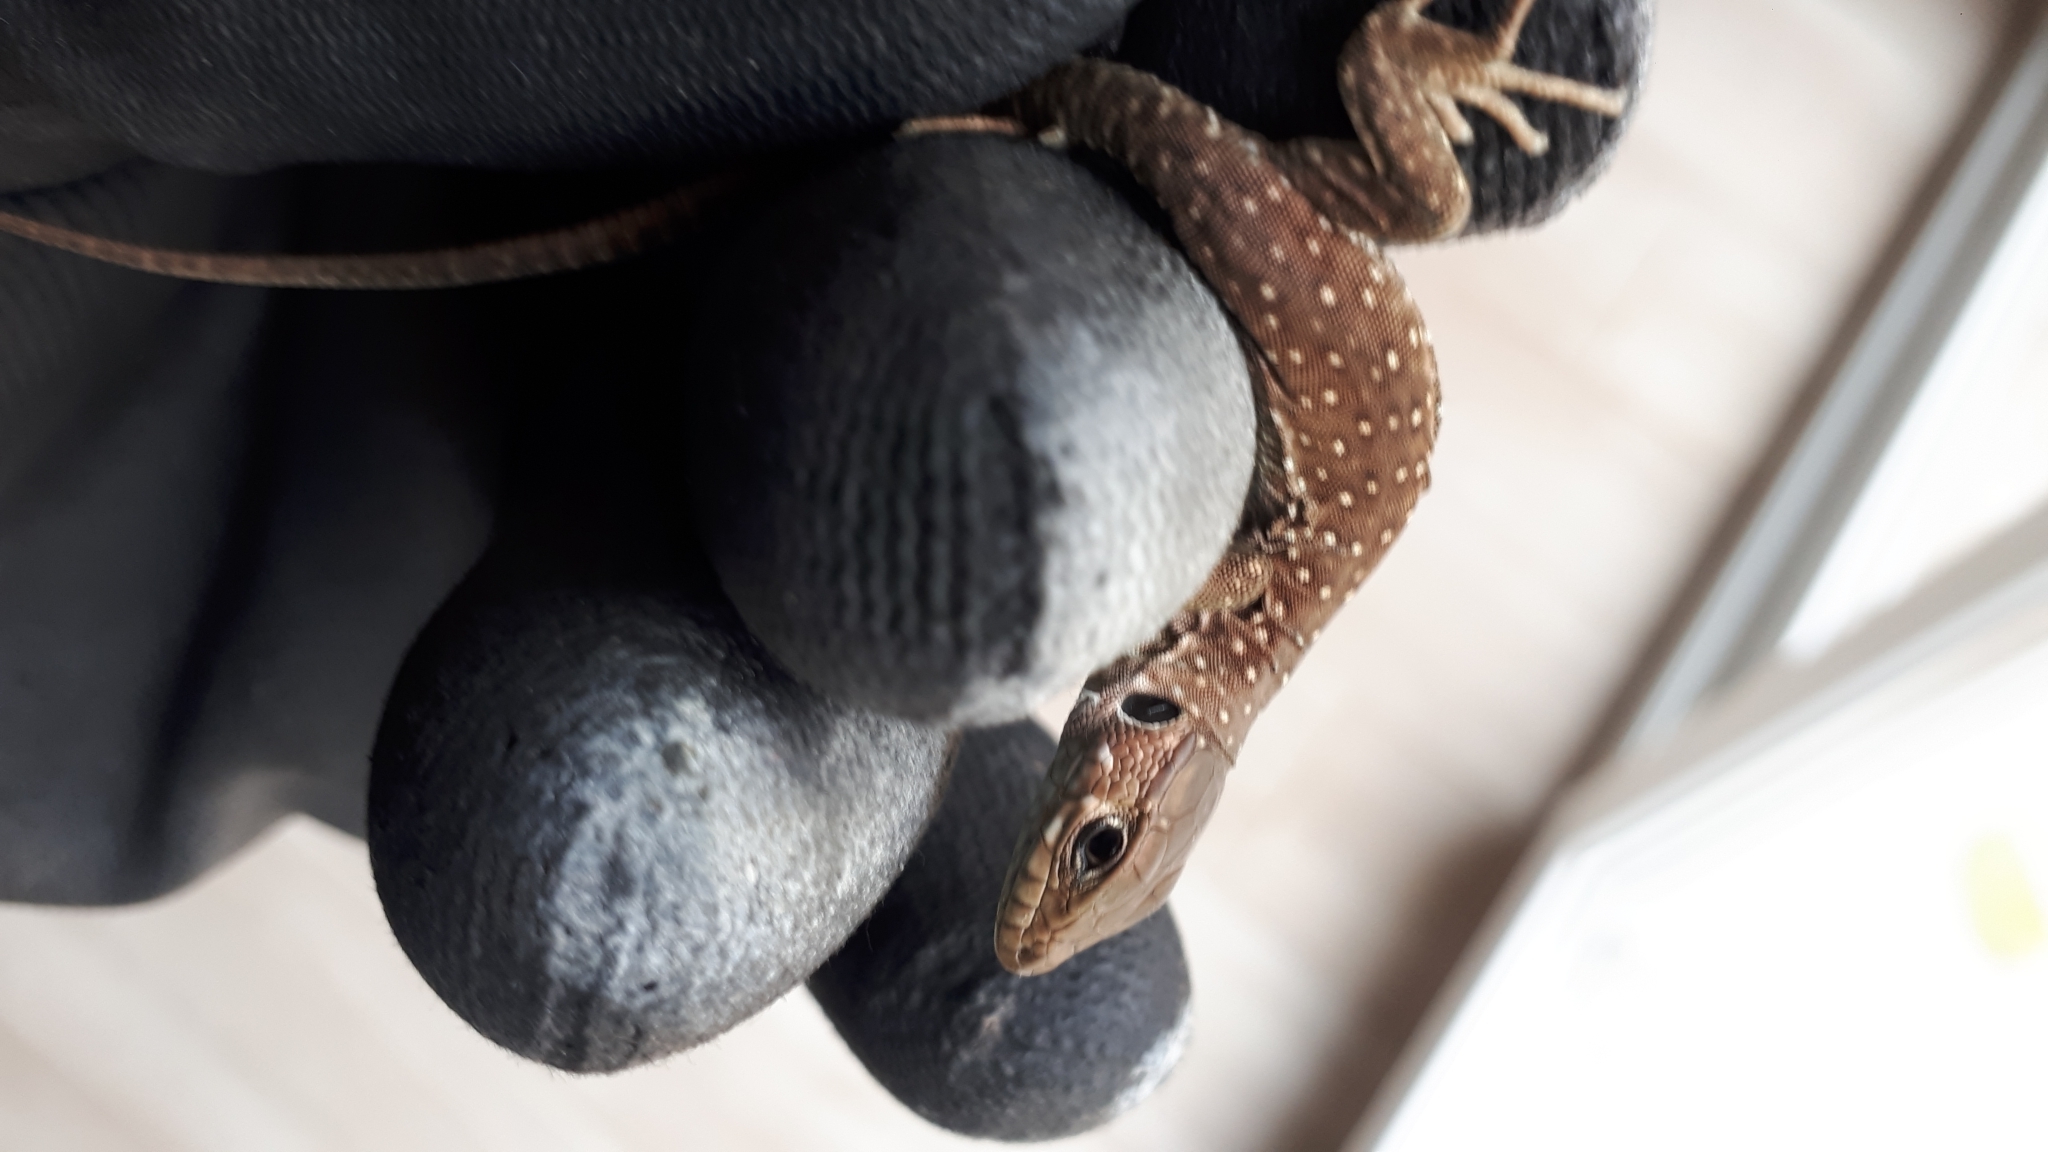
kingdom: Animalia
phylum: Chordata
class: Squamata
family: Lacertidae
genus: Timon
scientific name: Timon nevadensis
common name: Sierra nevada (ocellated) lizard
